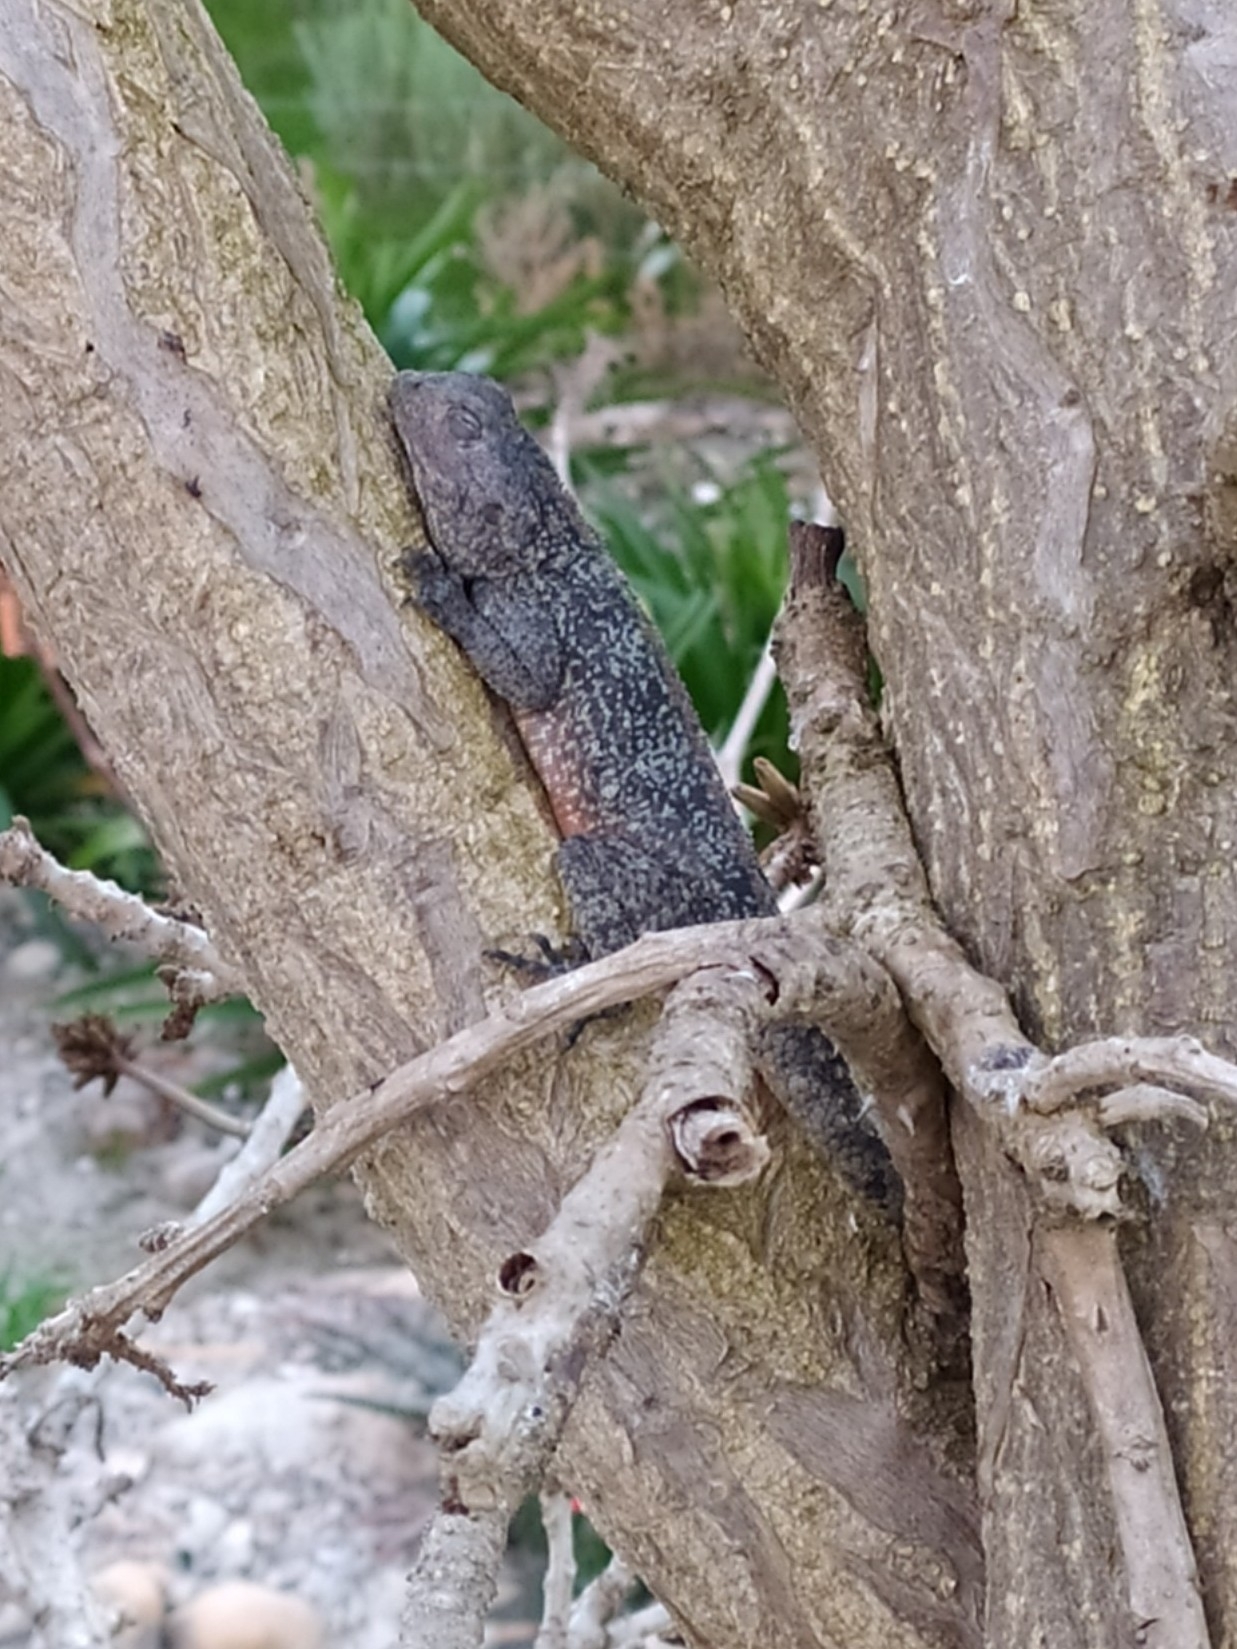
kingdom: Animalia
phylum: Chordata
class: Squamata
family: Agamidae
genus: Agama
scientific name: Agama atra
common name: Southern african rock agama
